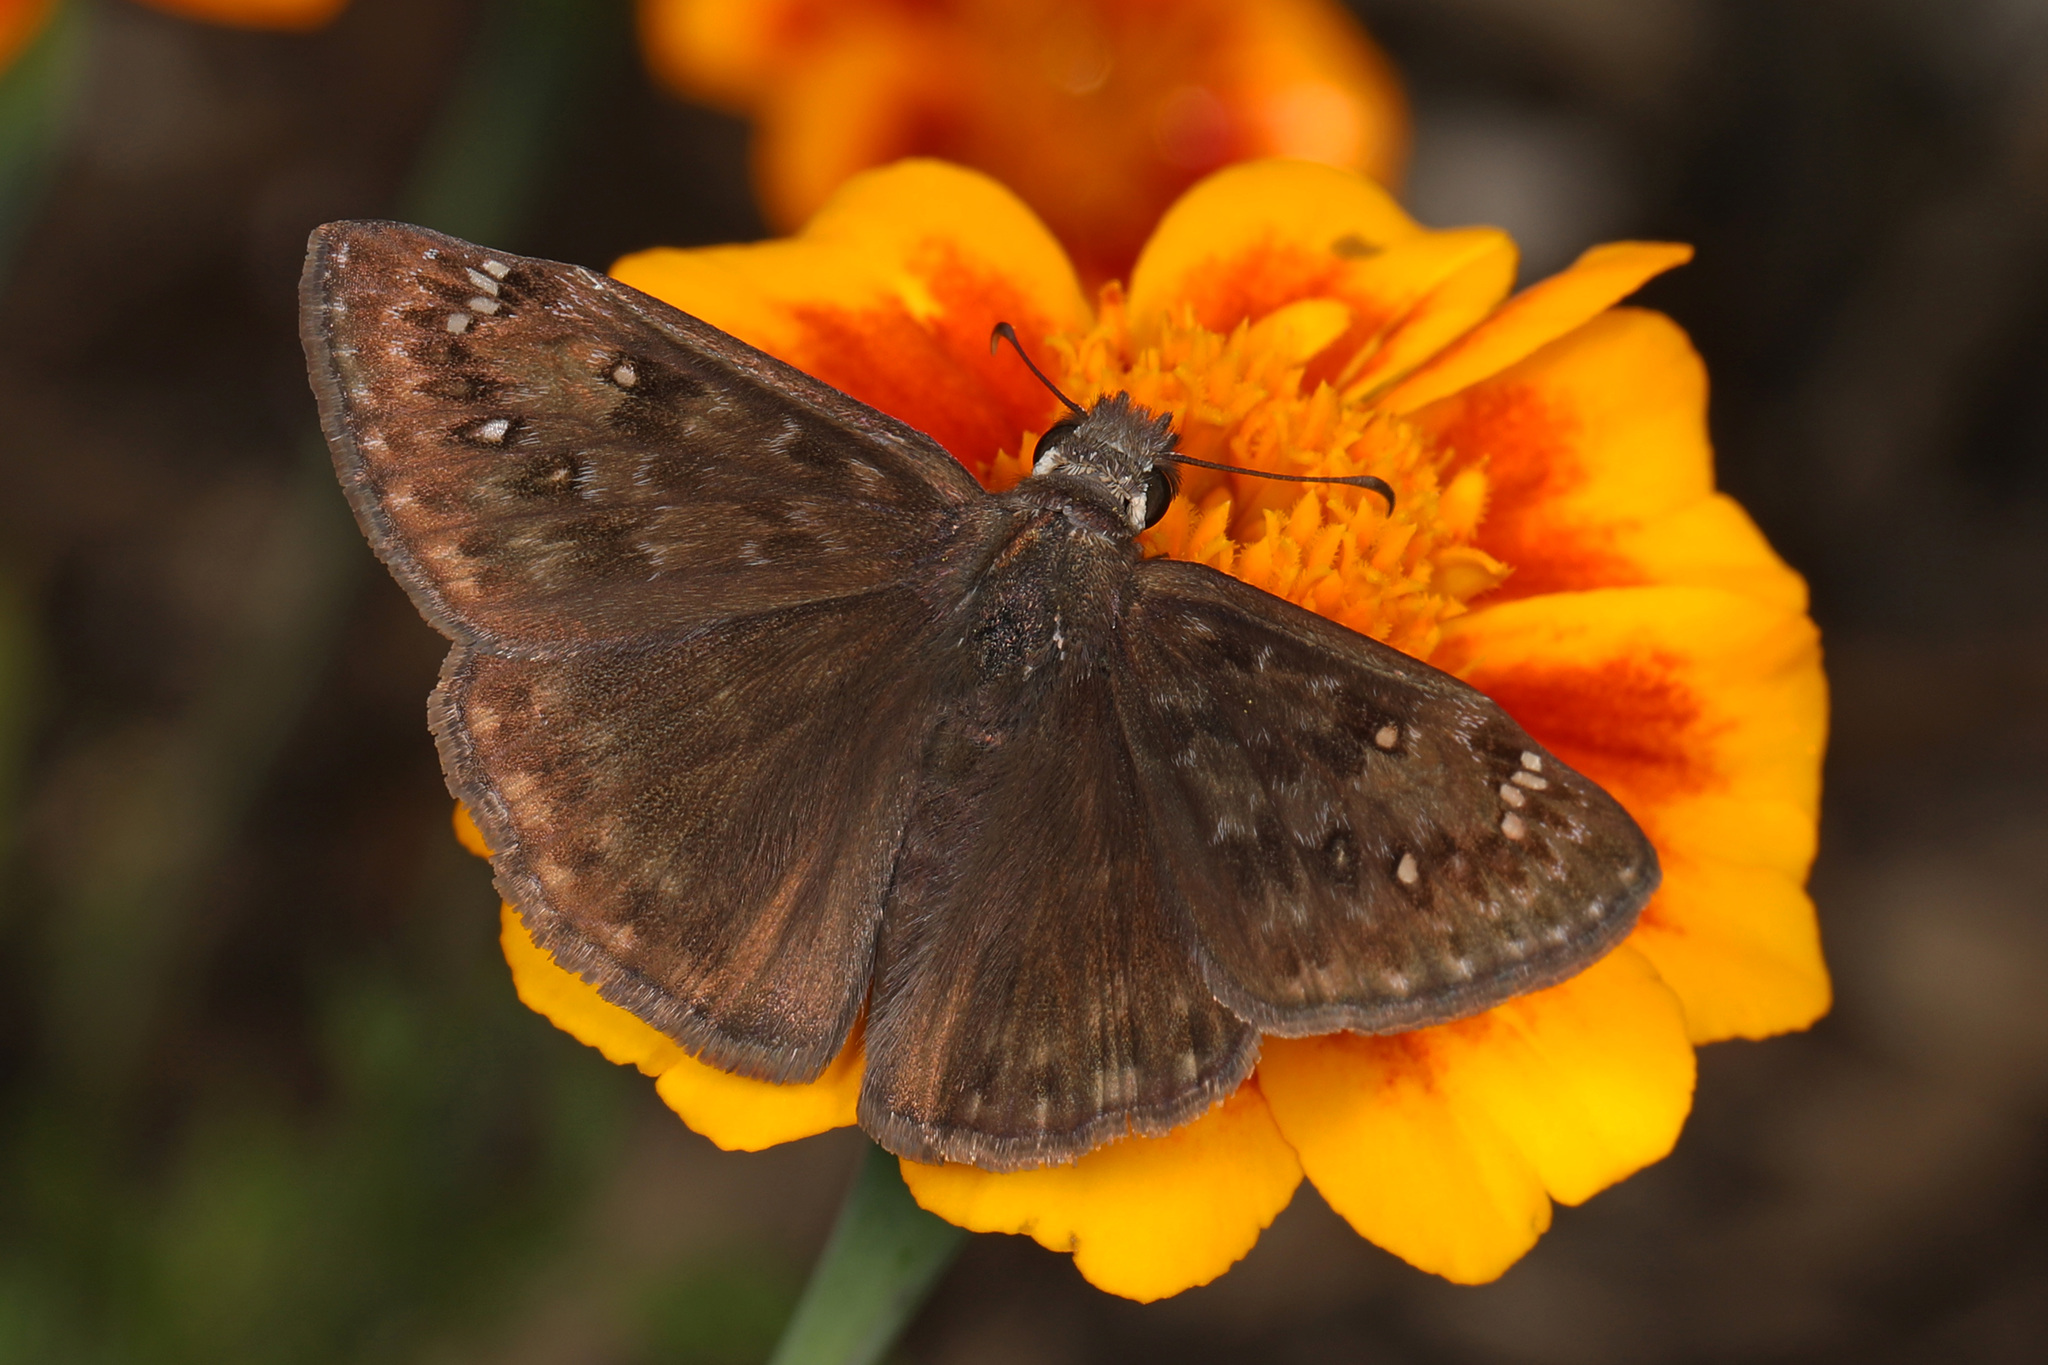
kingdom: Animalia
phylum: Arthropoda
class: Insecta
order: Lepidoptera
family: Hesperiidae
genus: Erynnis
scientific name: Erynnis horatius
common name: Horace's duskywing
